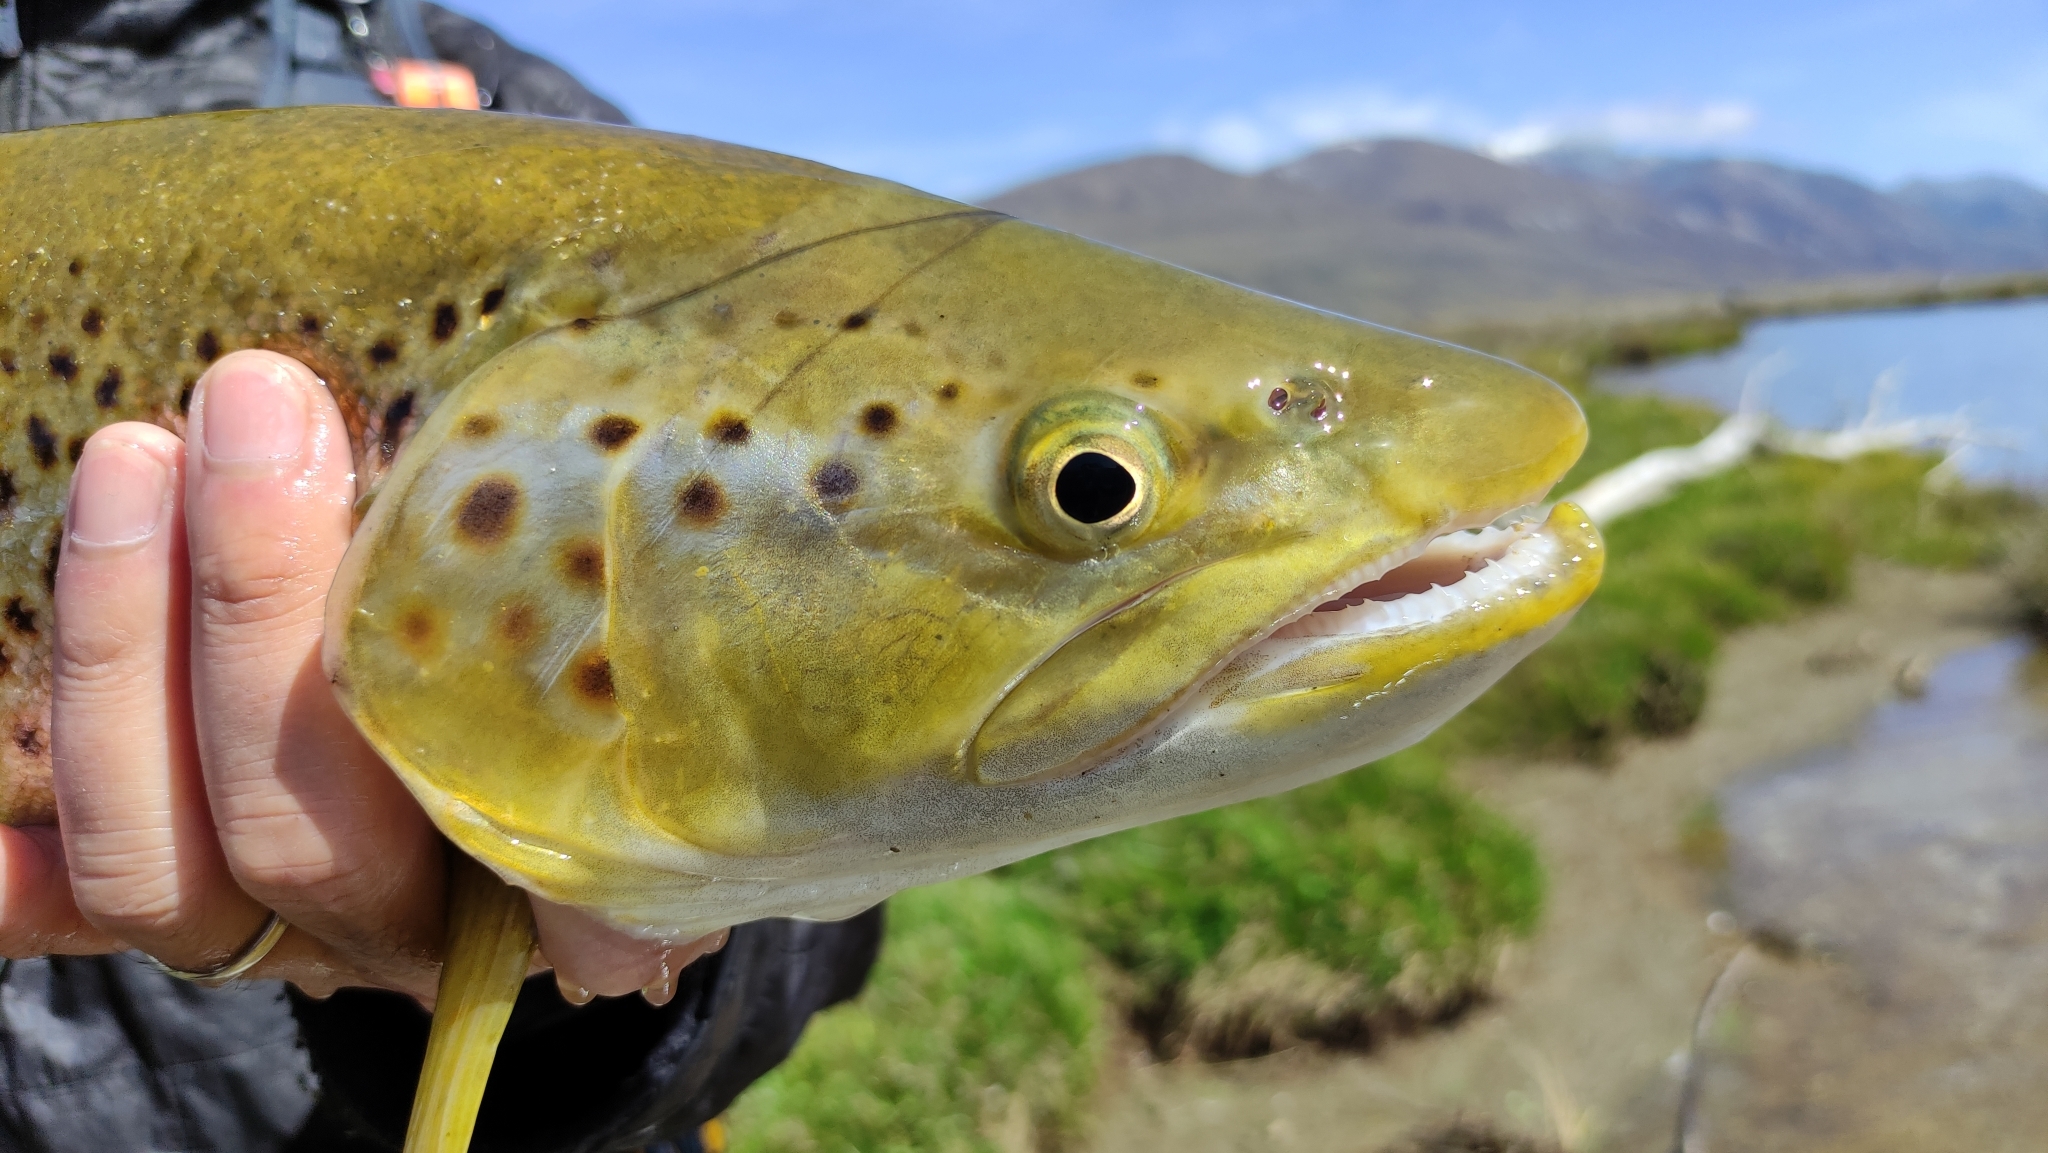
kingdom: Animalia
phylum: Chordata
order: Salmoniformes
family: Salmonidae
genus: Salmo
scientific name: Salmo trutta
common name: Brown trout
